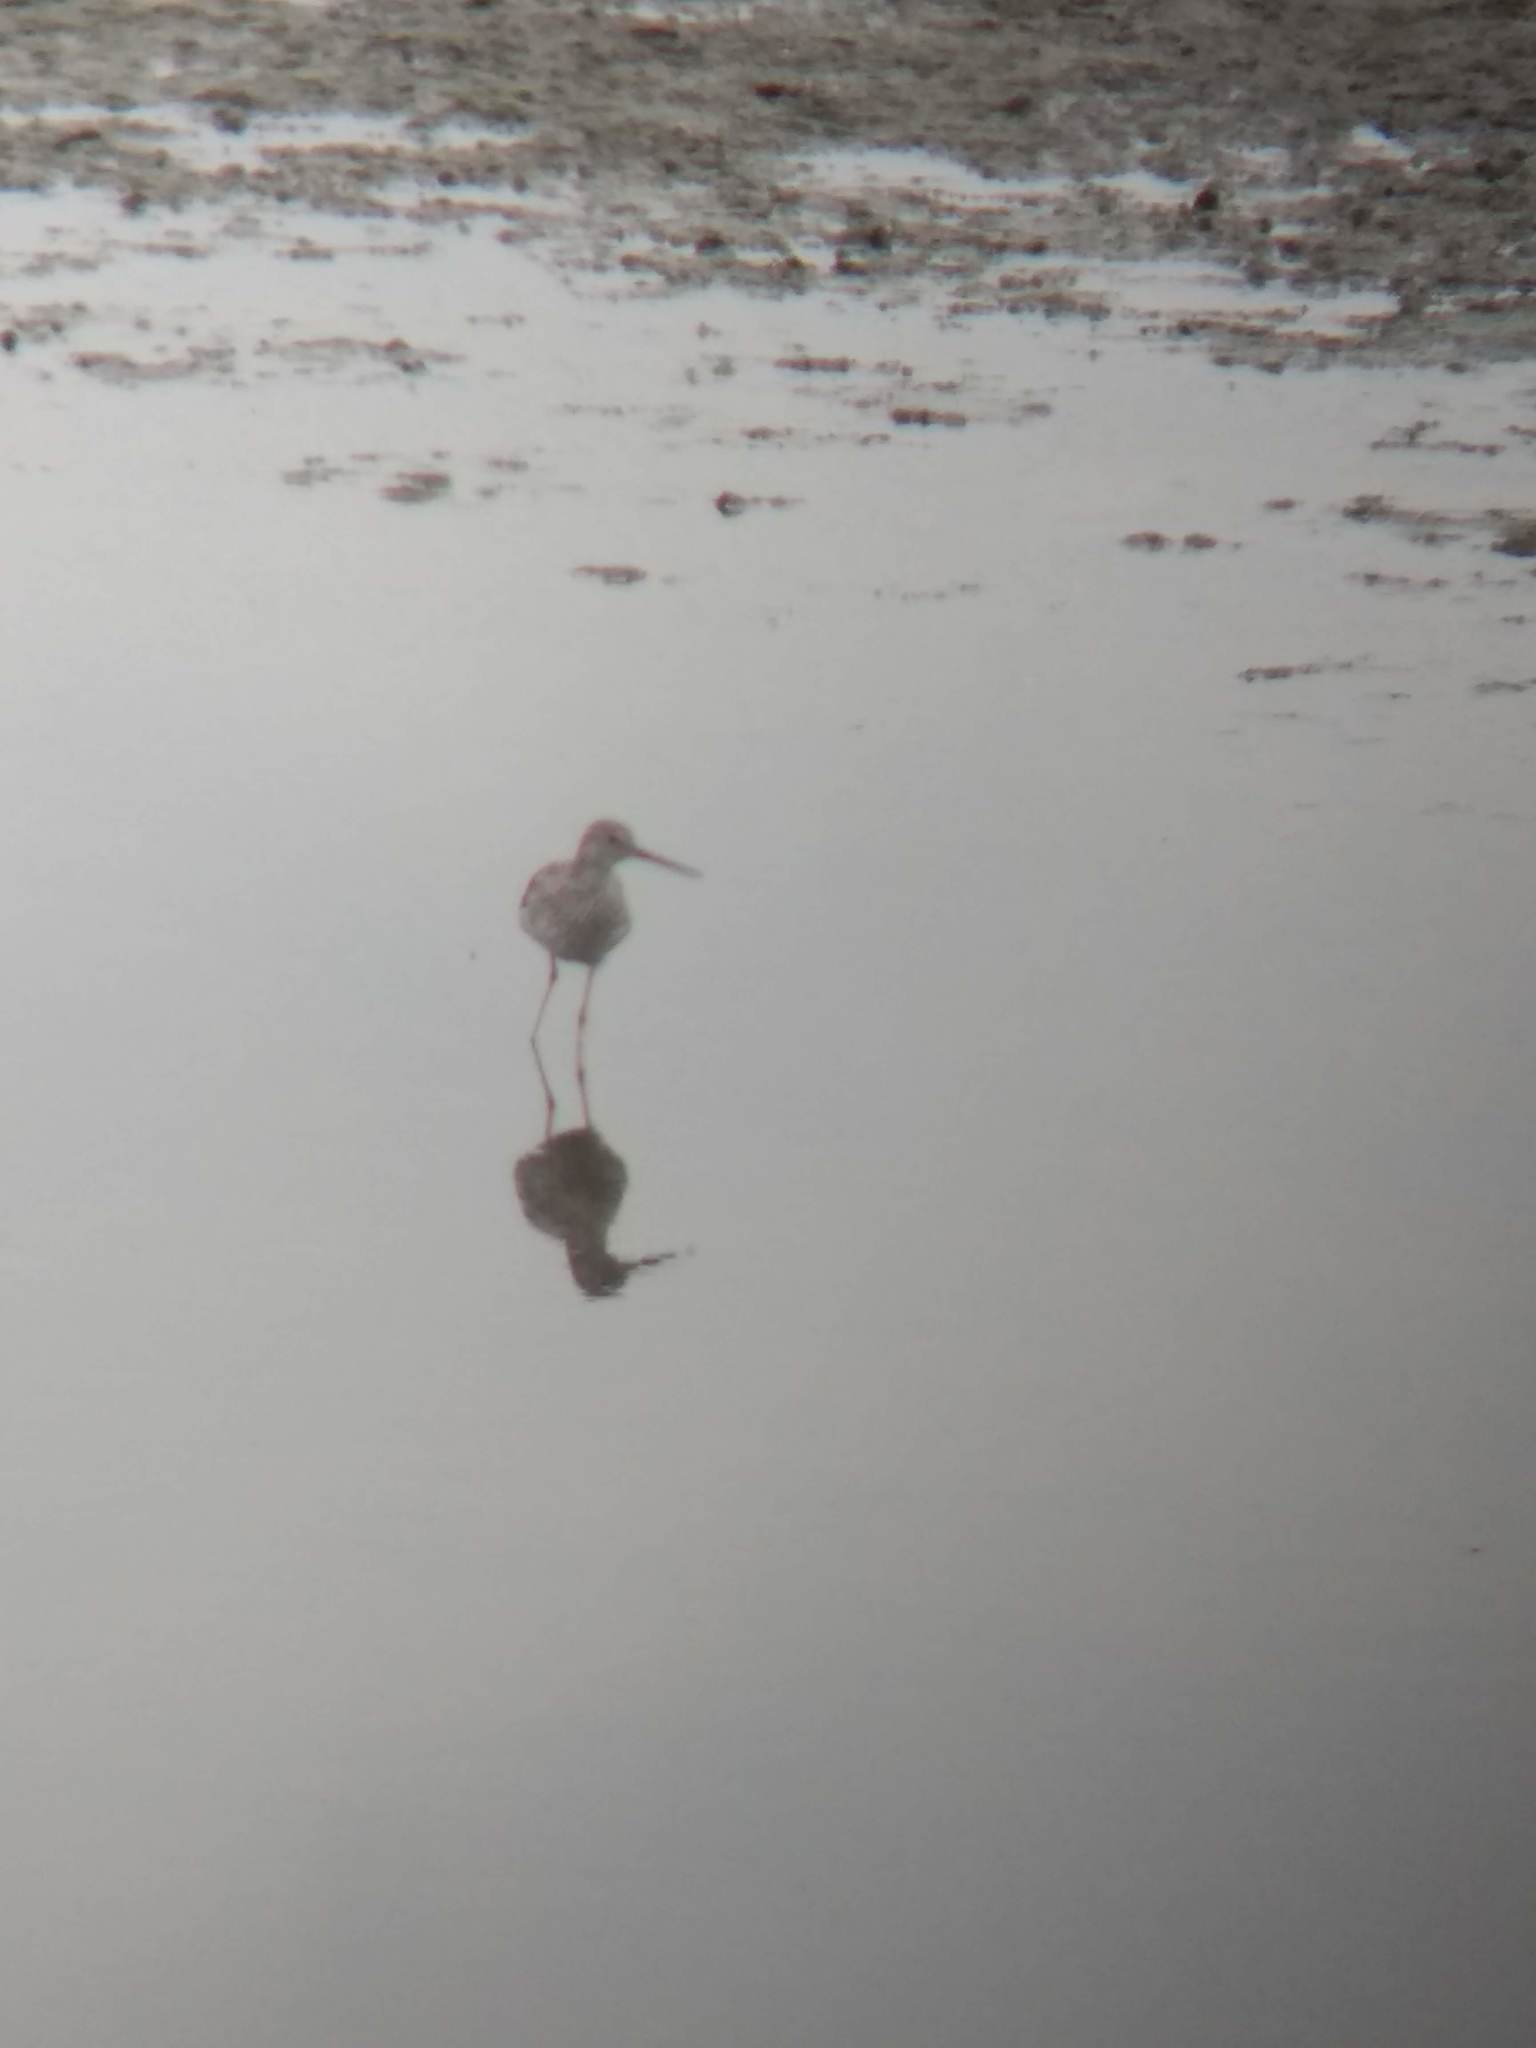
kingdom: Animalia
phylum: Chordata
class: Aves
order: Charadriiformes
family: Scolopacidae
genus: Tringa
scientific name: Tringa melanoleuca
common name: Greater yellowlegs
